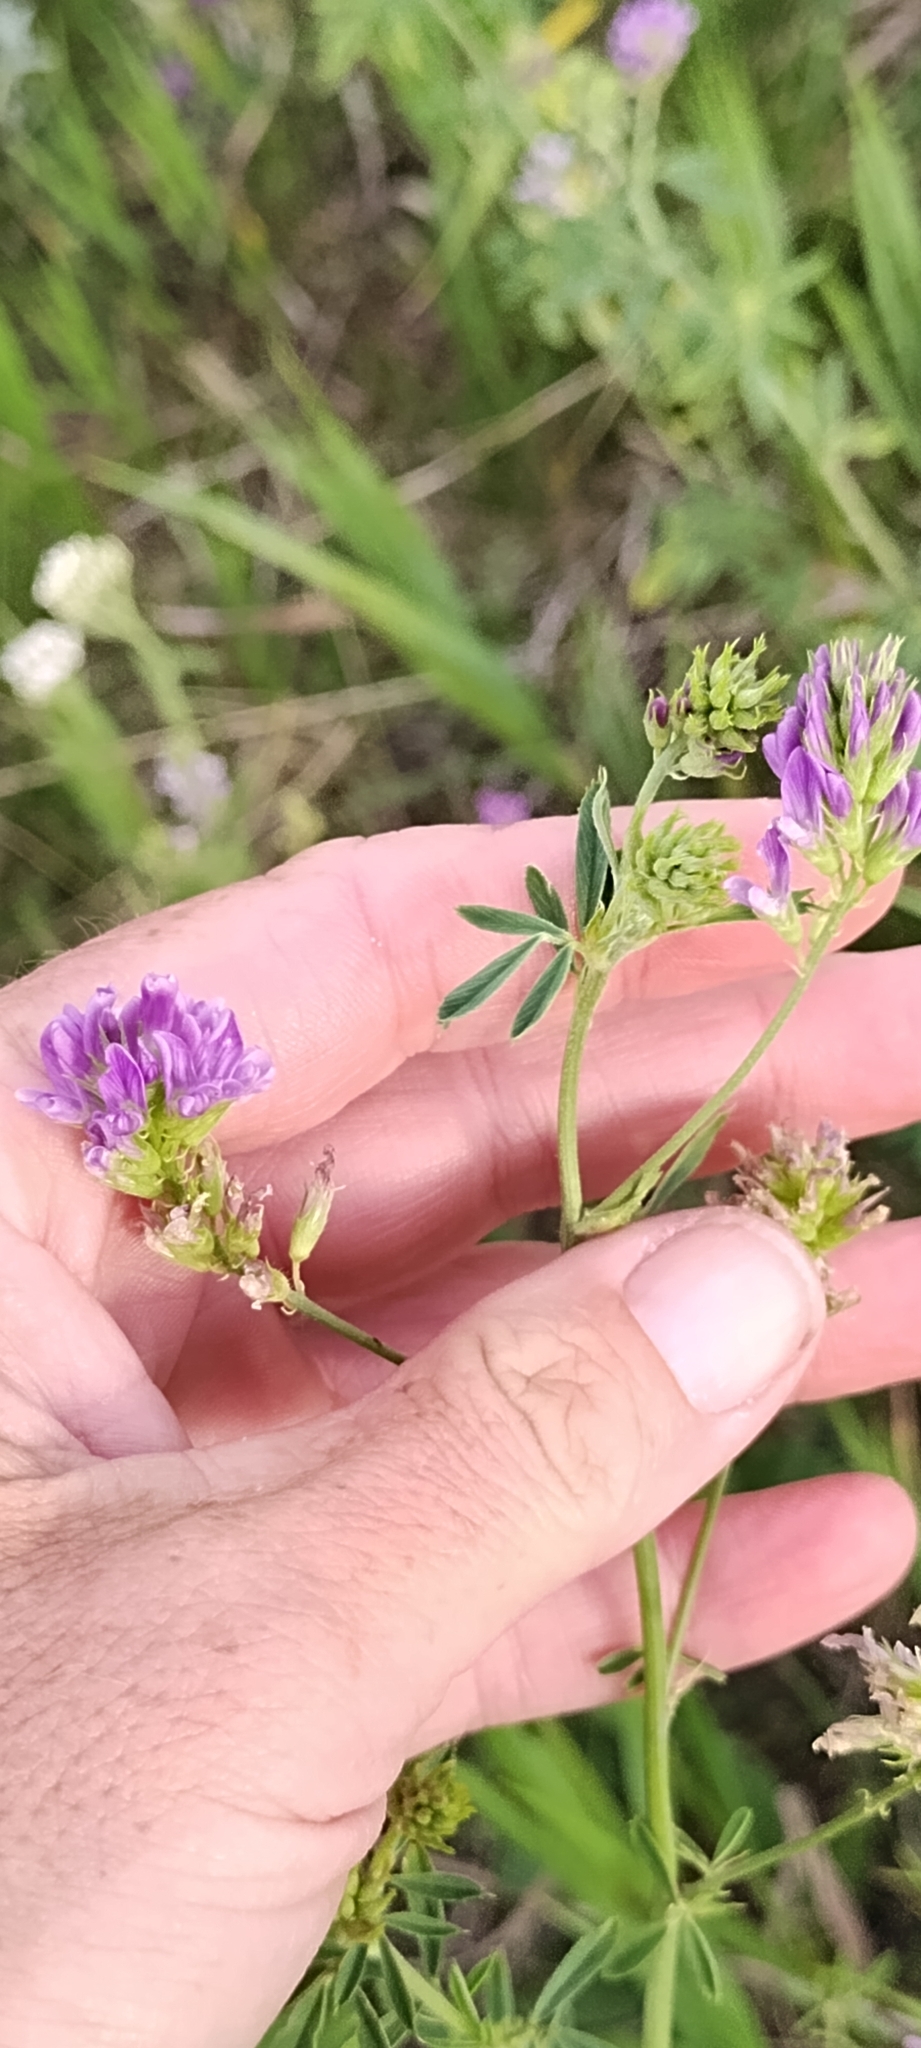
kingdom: Plantae
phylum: Tracheophyta
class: Magnoliopsida
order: Fabales
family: Fabaceae
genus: Medicago
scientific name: Medicago sativa
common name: Alfalfa
